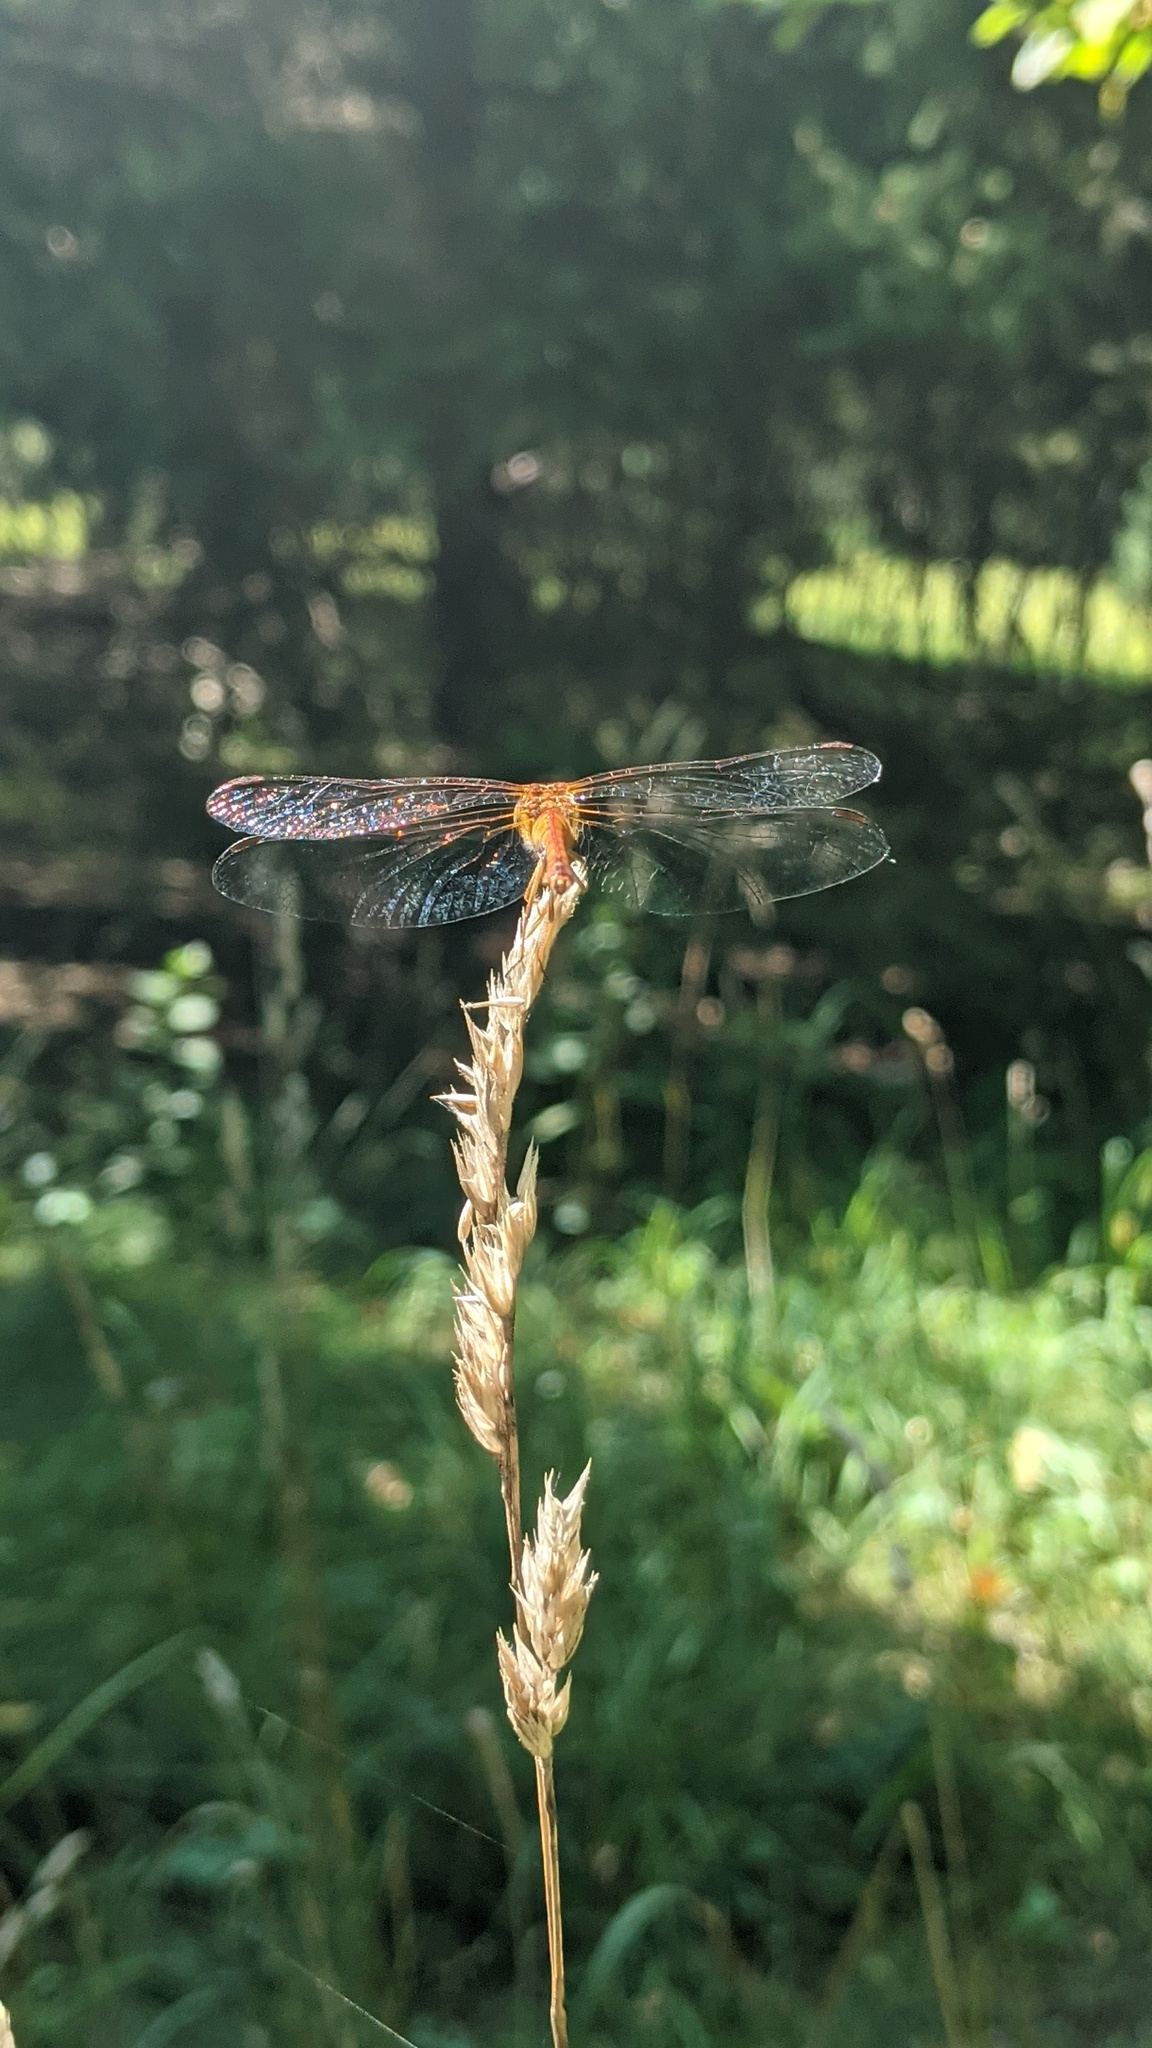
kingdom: Animalia
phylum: Arthropoda
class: Insecta
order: Odonata
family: Libellulidae
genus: Sympetrum
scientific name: Sympetrum vicinum
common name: Autumn meadowhawk
